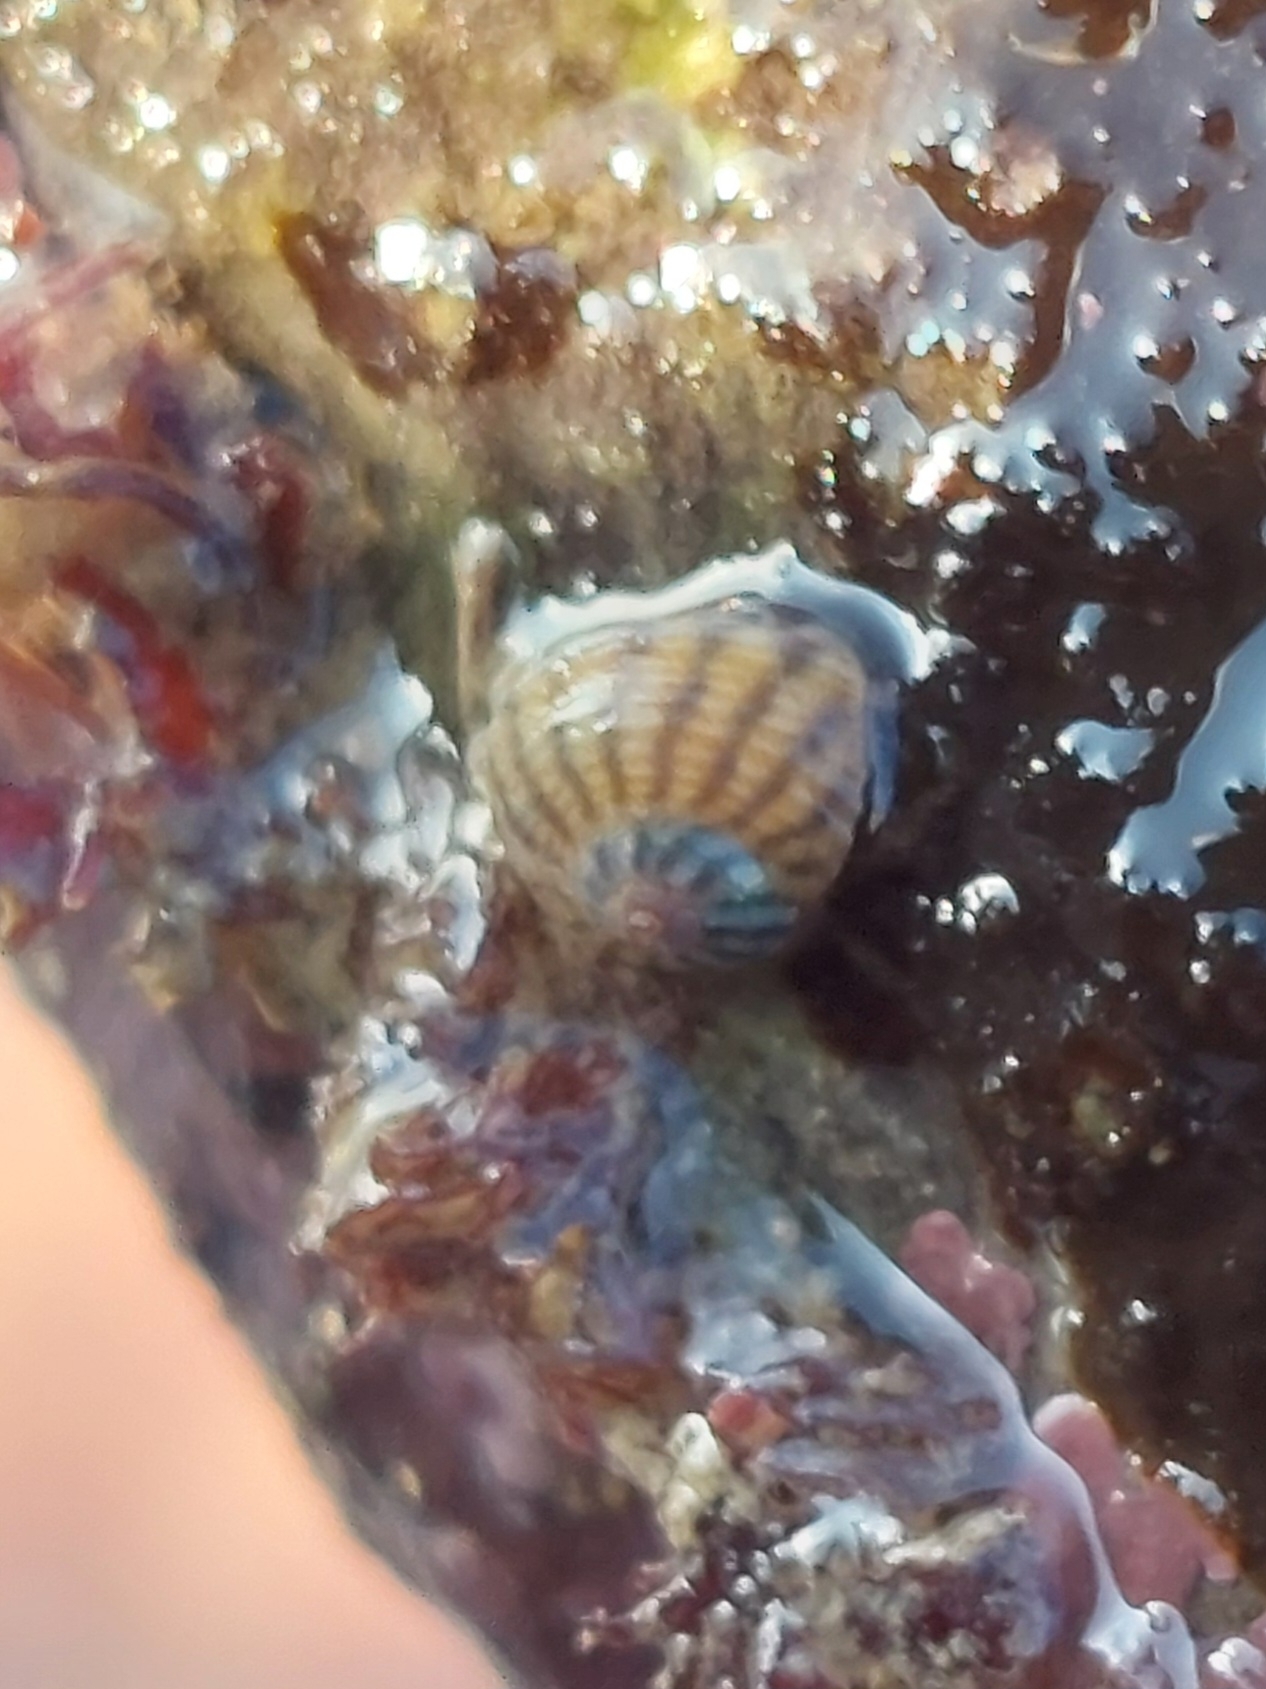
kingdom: Animalia
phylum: Mollusca
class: Gastropoda
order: Trochida
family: Trochidae
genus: Steromphala
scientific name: Steromphala cineraria
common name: Grey top shell
